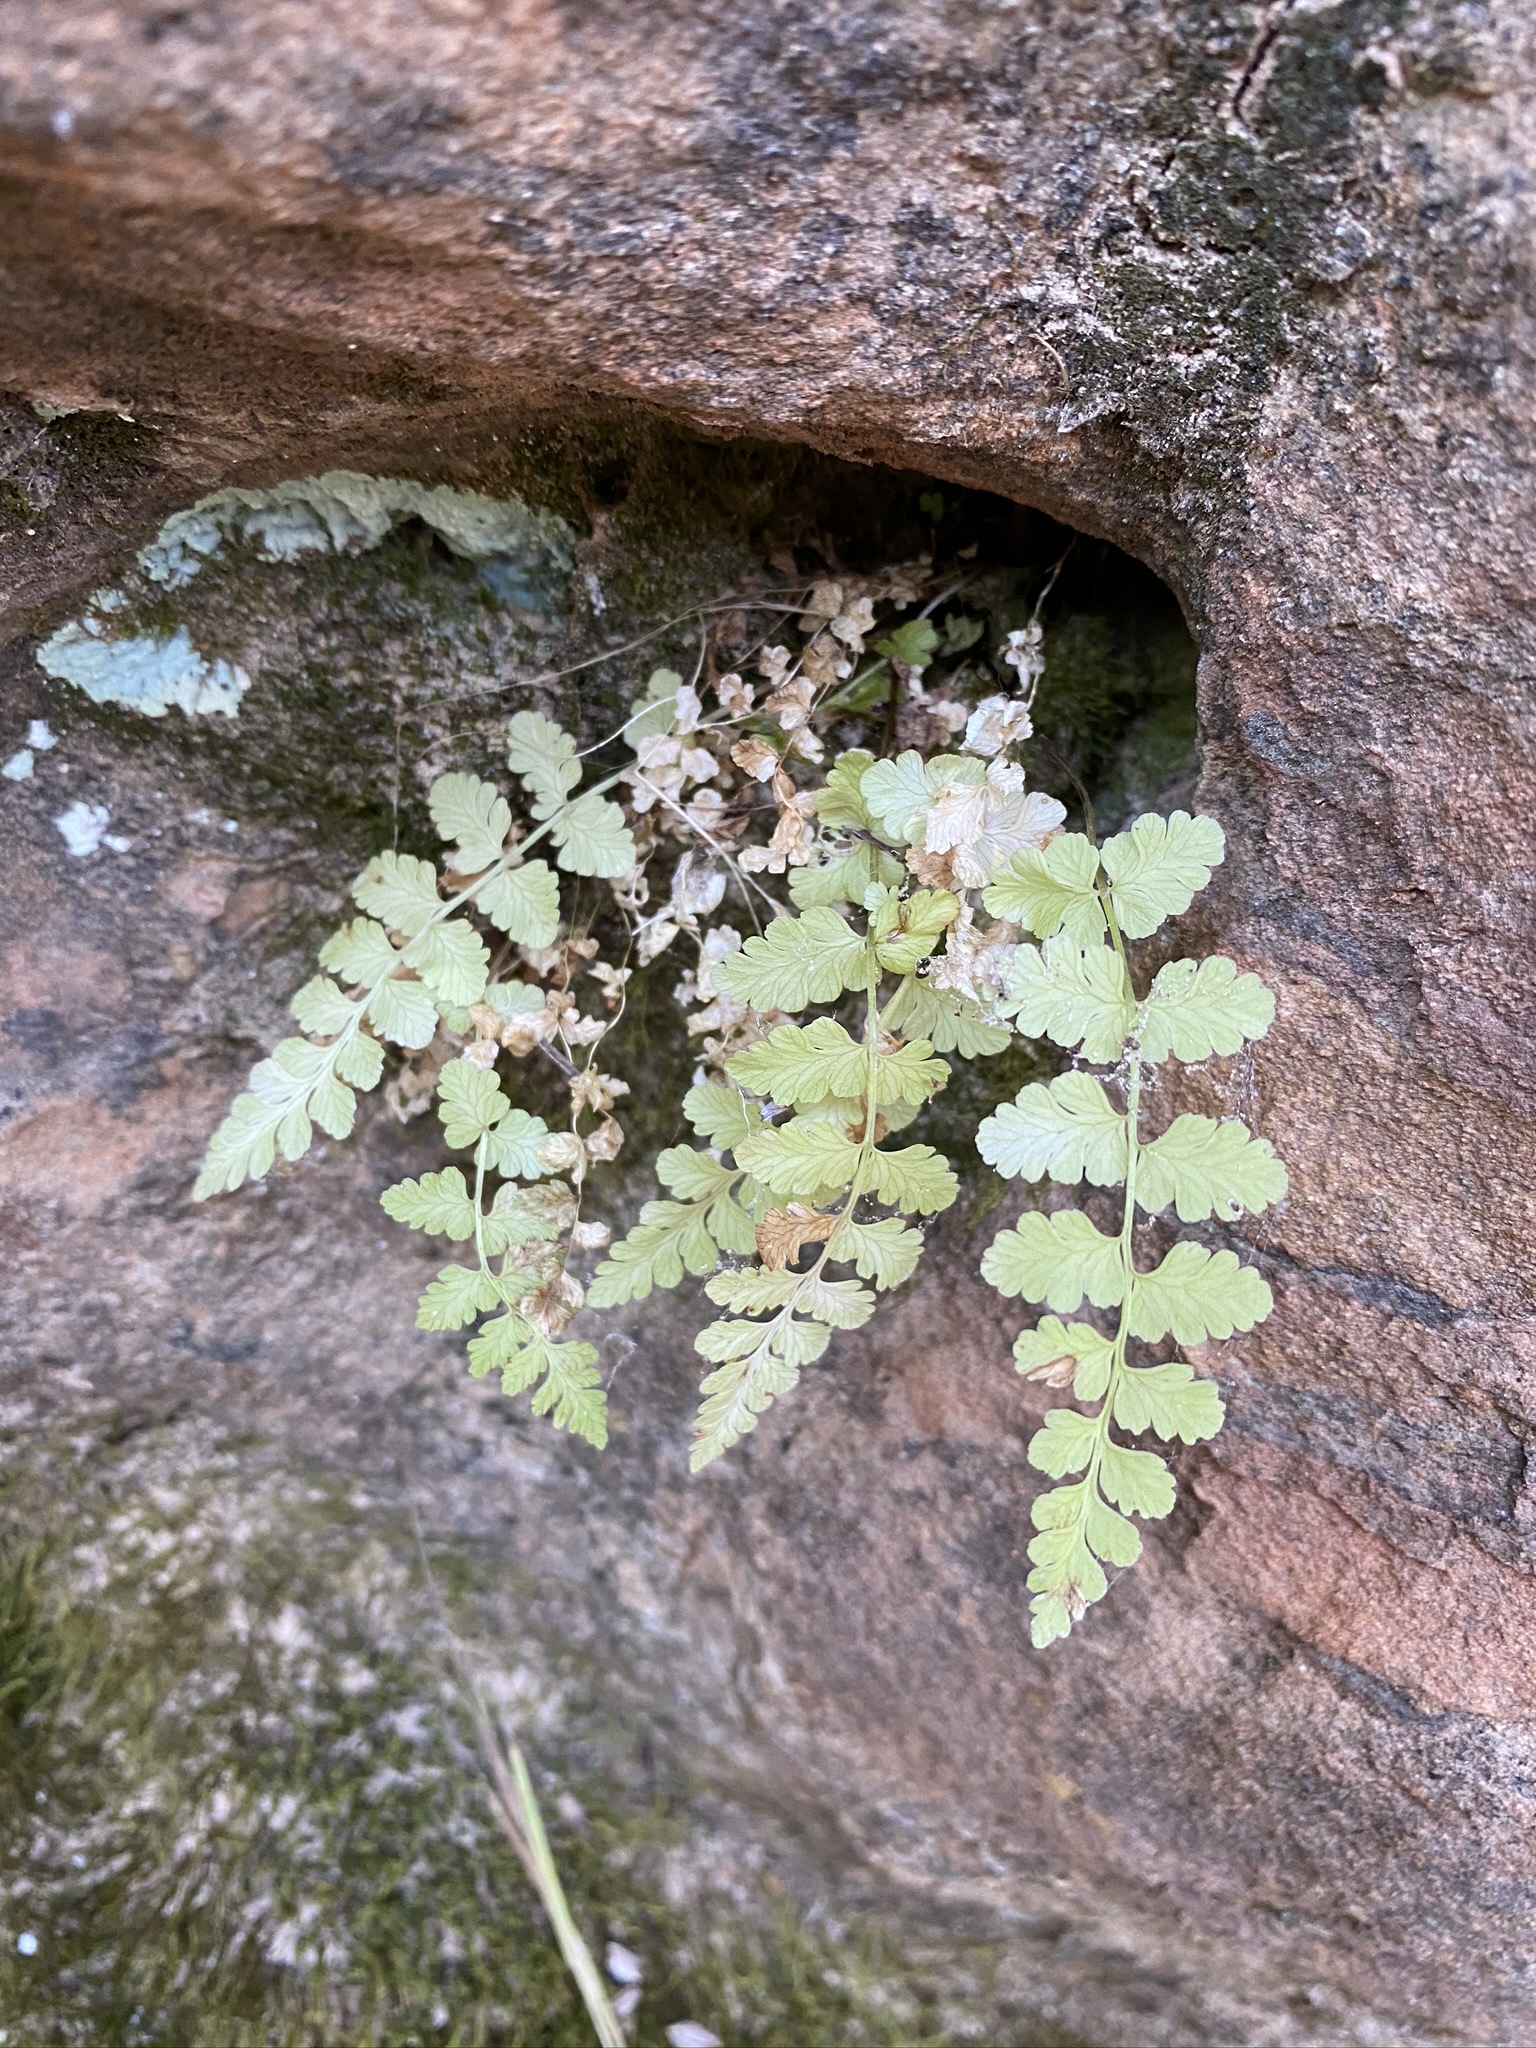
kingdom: Plantae
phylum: Tracheophyta
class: Polypodiopsida
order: Polypodiales
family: Cystopteridaceae
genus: Cystopteris
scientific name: Cystopteris fragilis
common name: Brittle bladder fern
